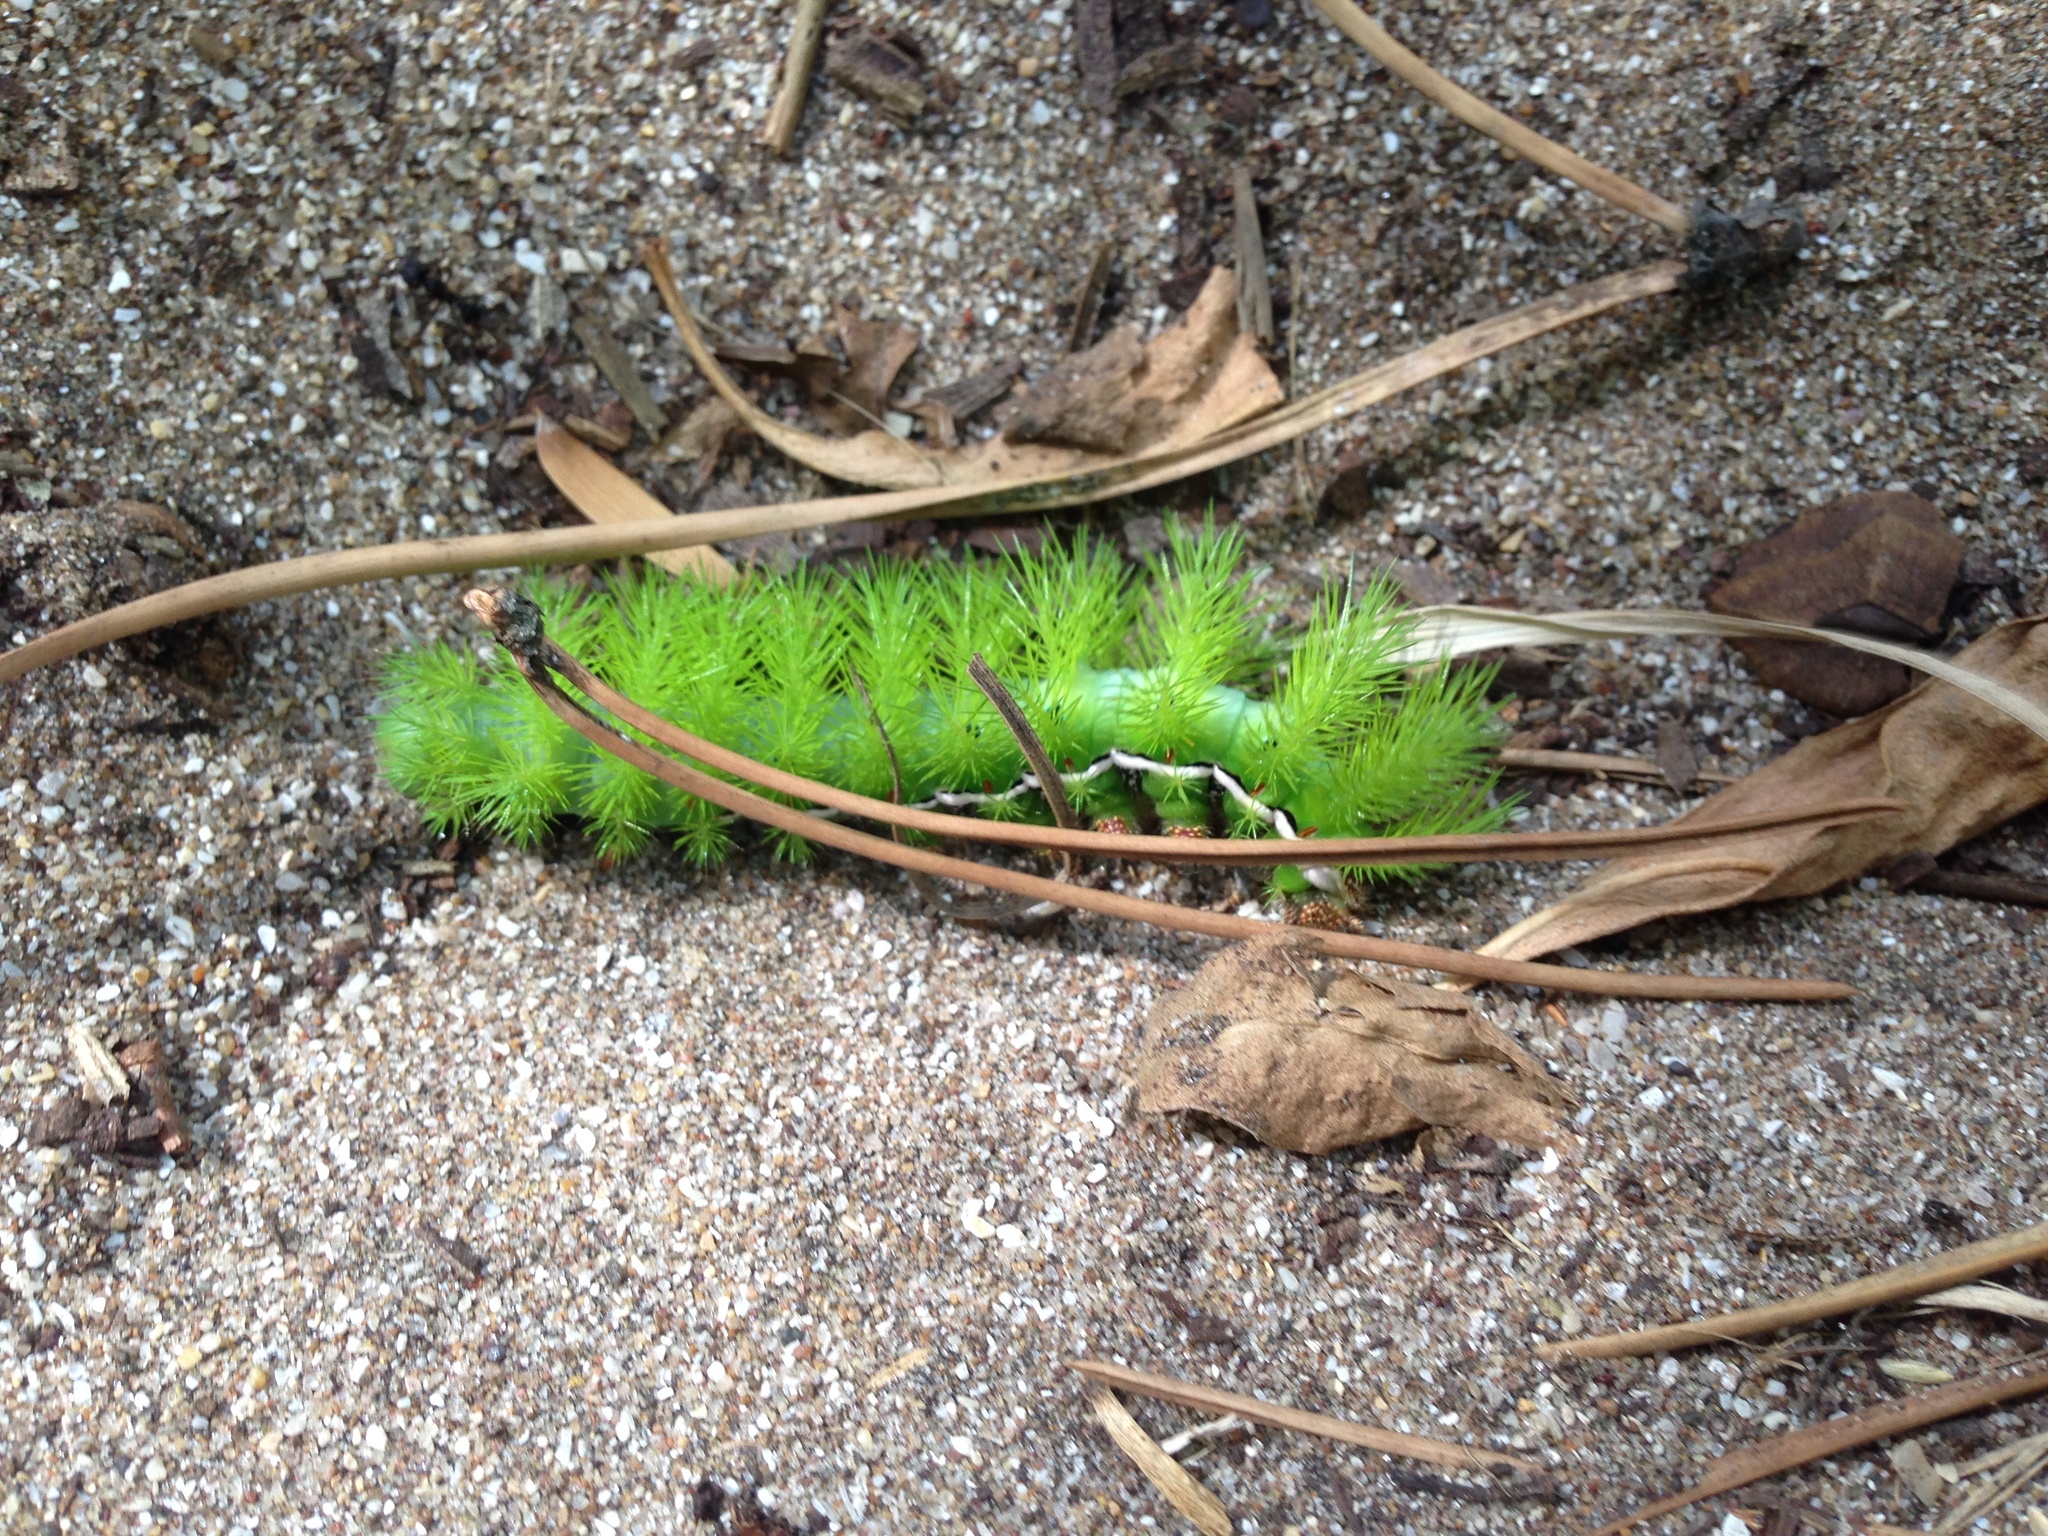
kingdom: Animalia
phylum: Arthropoda
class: Insecta
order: Lepidoptera
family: Saturniidae
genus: Automeris
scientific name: Automeris coresus
